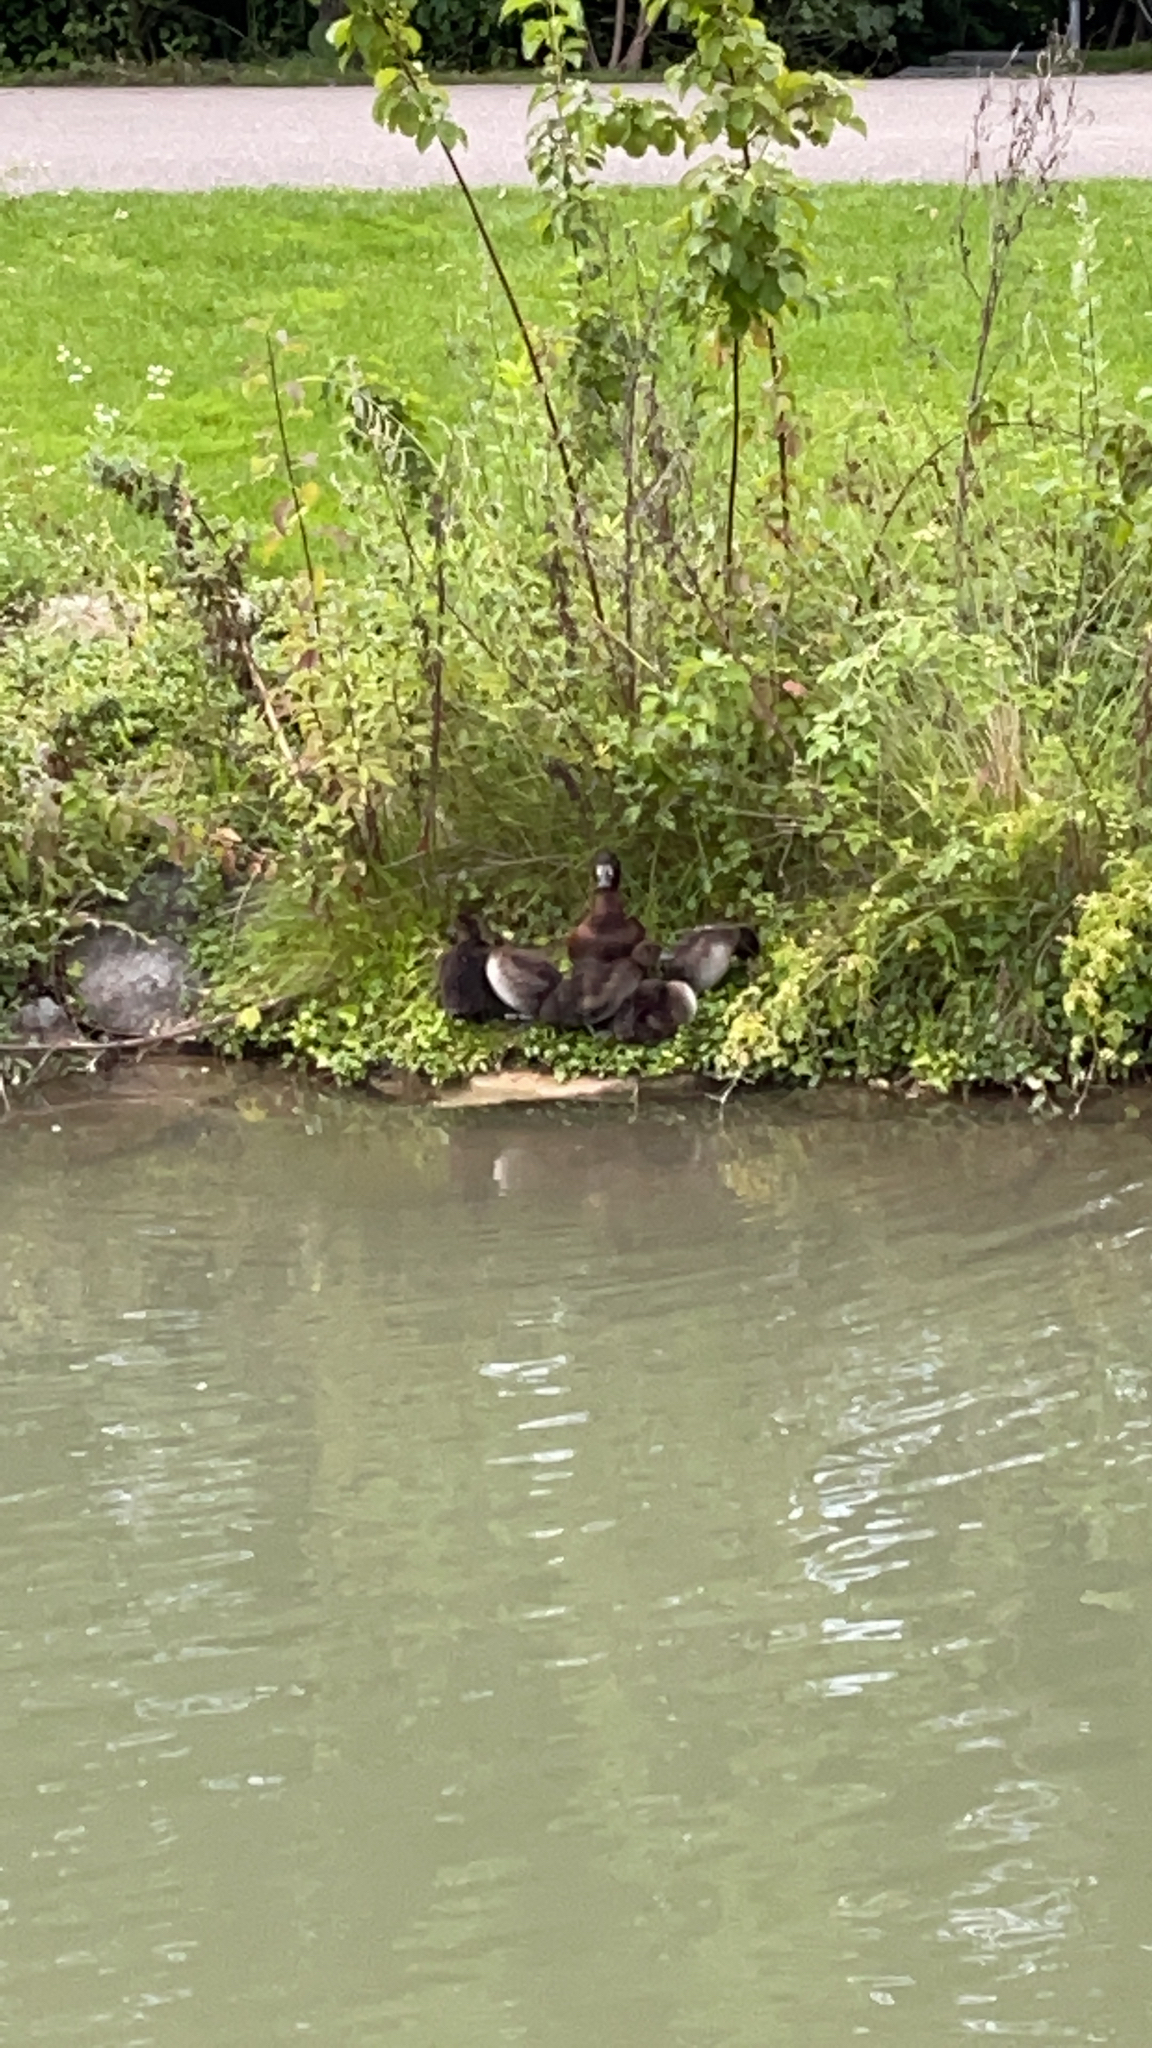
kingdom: Animalia
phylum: Chordata
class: Aves
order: Anseriformes
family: Anatidae
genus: Aythya
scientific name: Aythya fuligula
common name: Tufted duck
